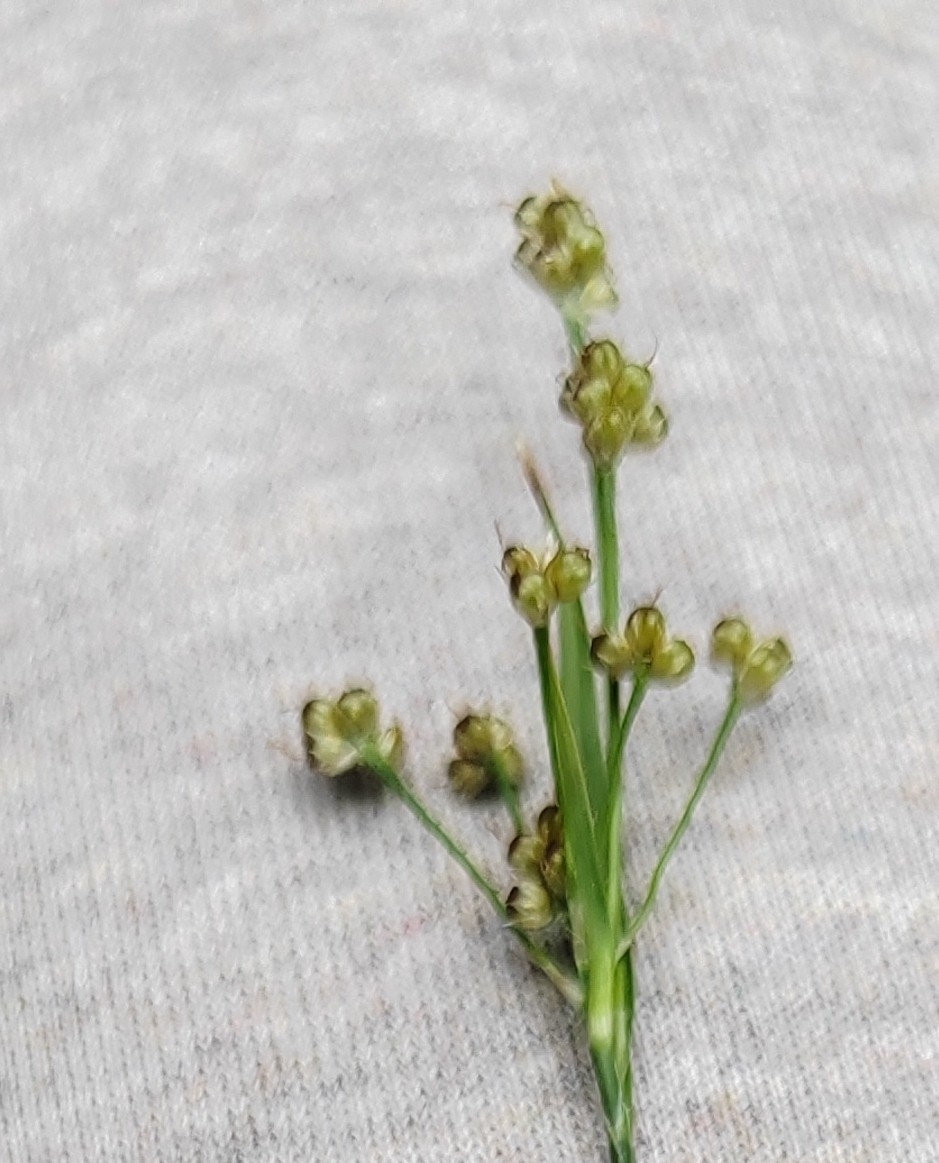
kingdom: Plantae
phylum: Tracheophyta
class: Liliopsida
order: Poales
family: Juncaceae
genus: Luzula
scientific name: Luzula pallescens
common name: Fen wood-rush
